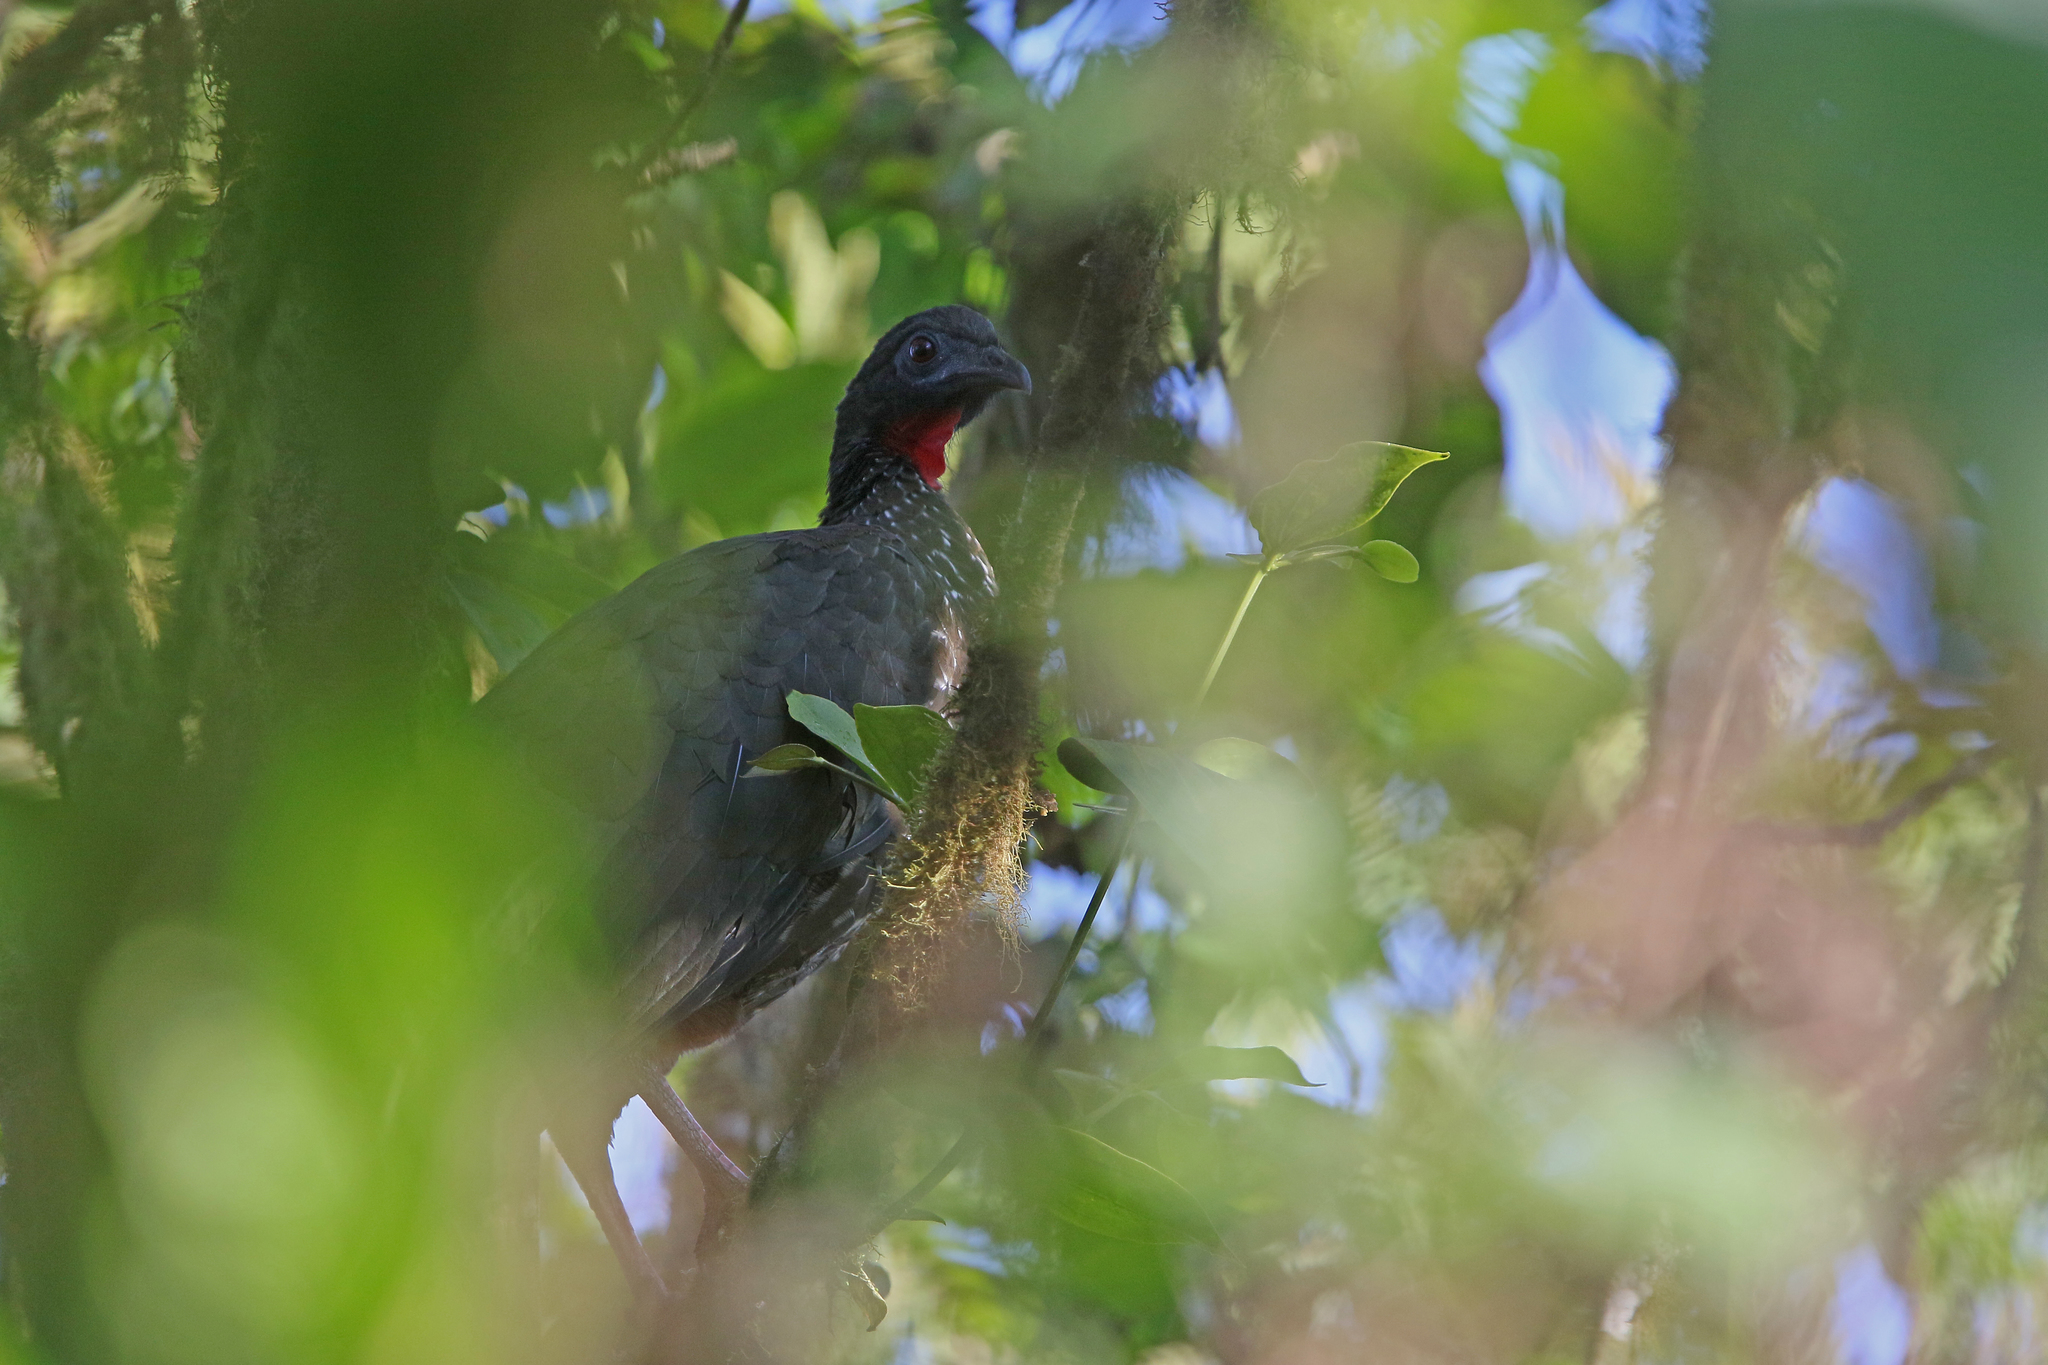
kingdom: Animalia
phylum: Chordata
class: Aves
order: Galliformes
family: Cracidae
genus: Penelope
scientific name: Penelope purpurascens
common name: Crested guan
